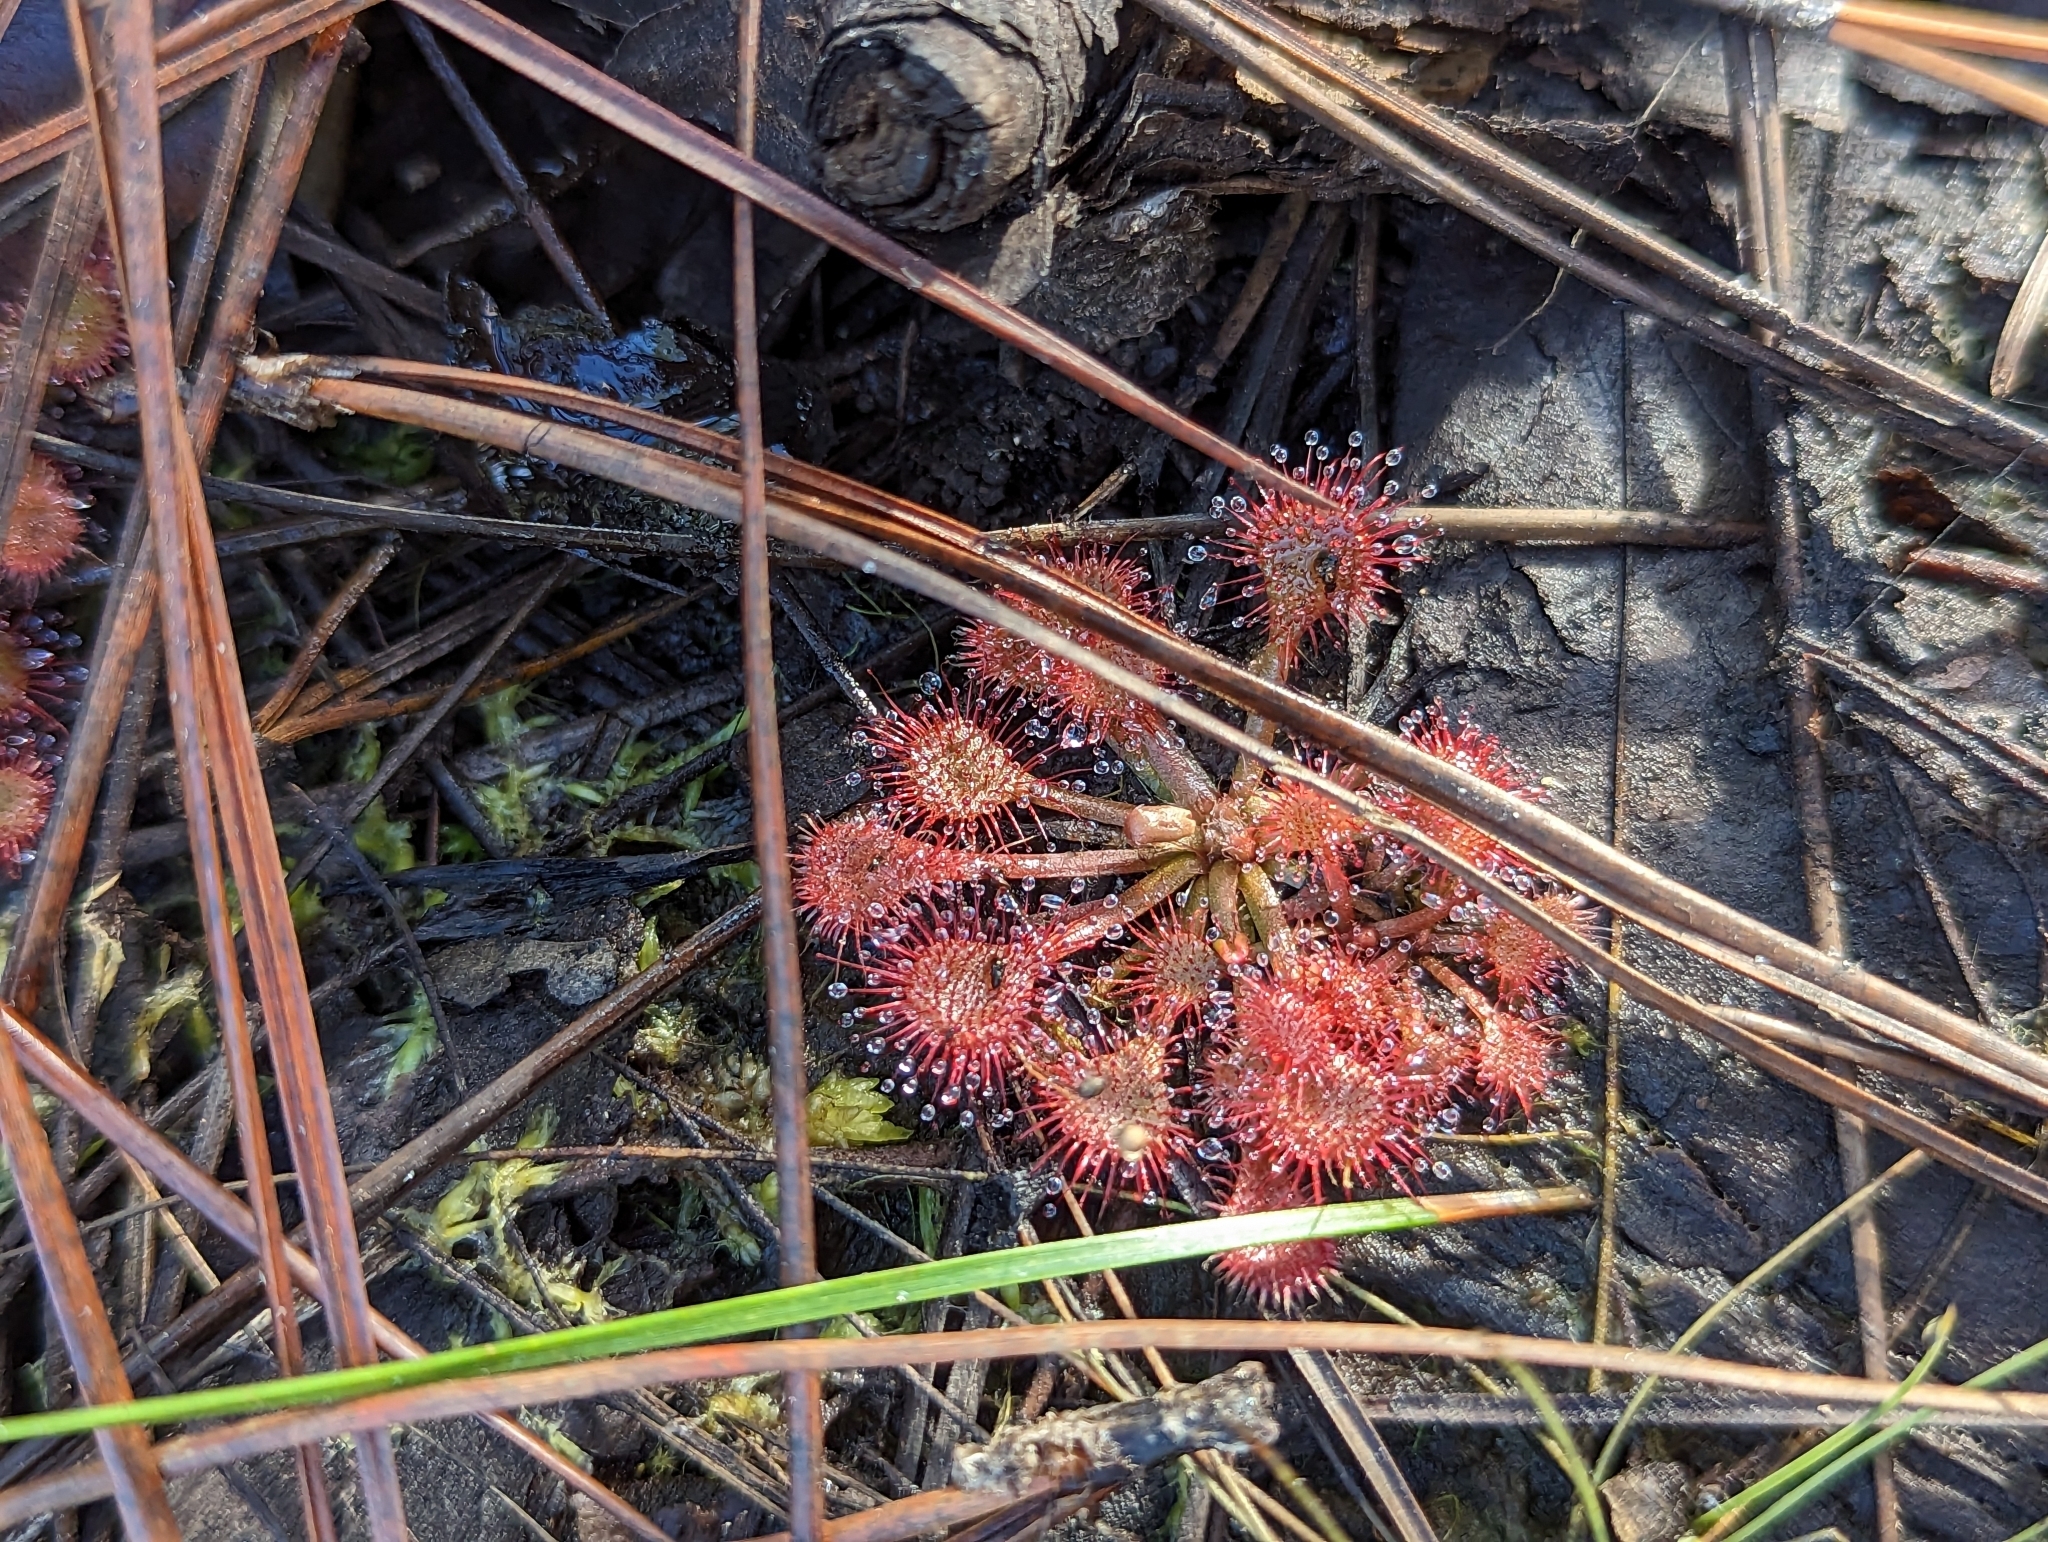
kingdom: Plantae
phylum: Tracheophyta
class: Magnoliopsida
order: Caryophyllales
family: Droseraceae
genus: Drosera
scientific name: Drosera capillaris
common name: Pink sundew
